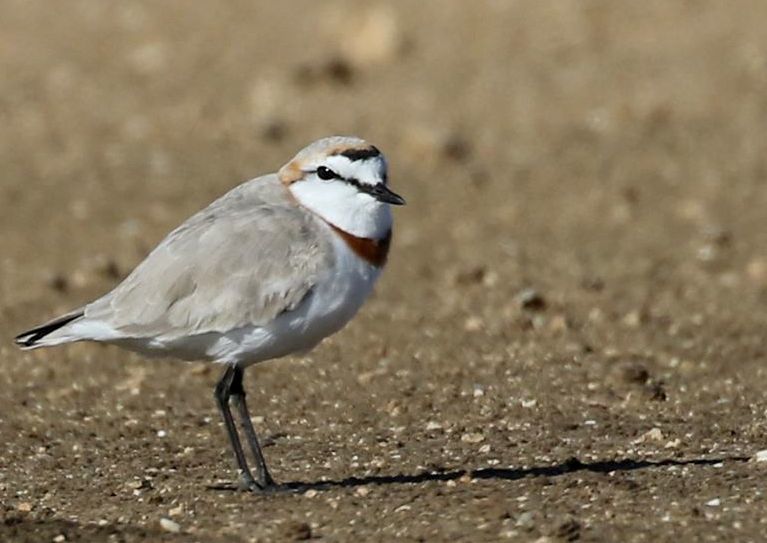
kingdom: Animalia
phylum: Chordata
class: Aves
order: Charadriiformes
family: Charadriidae
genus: Anarhynchus
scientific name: Anarhynchus
